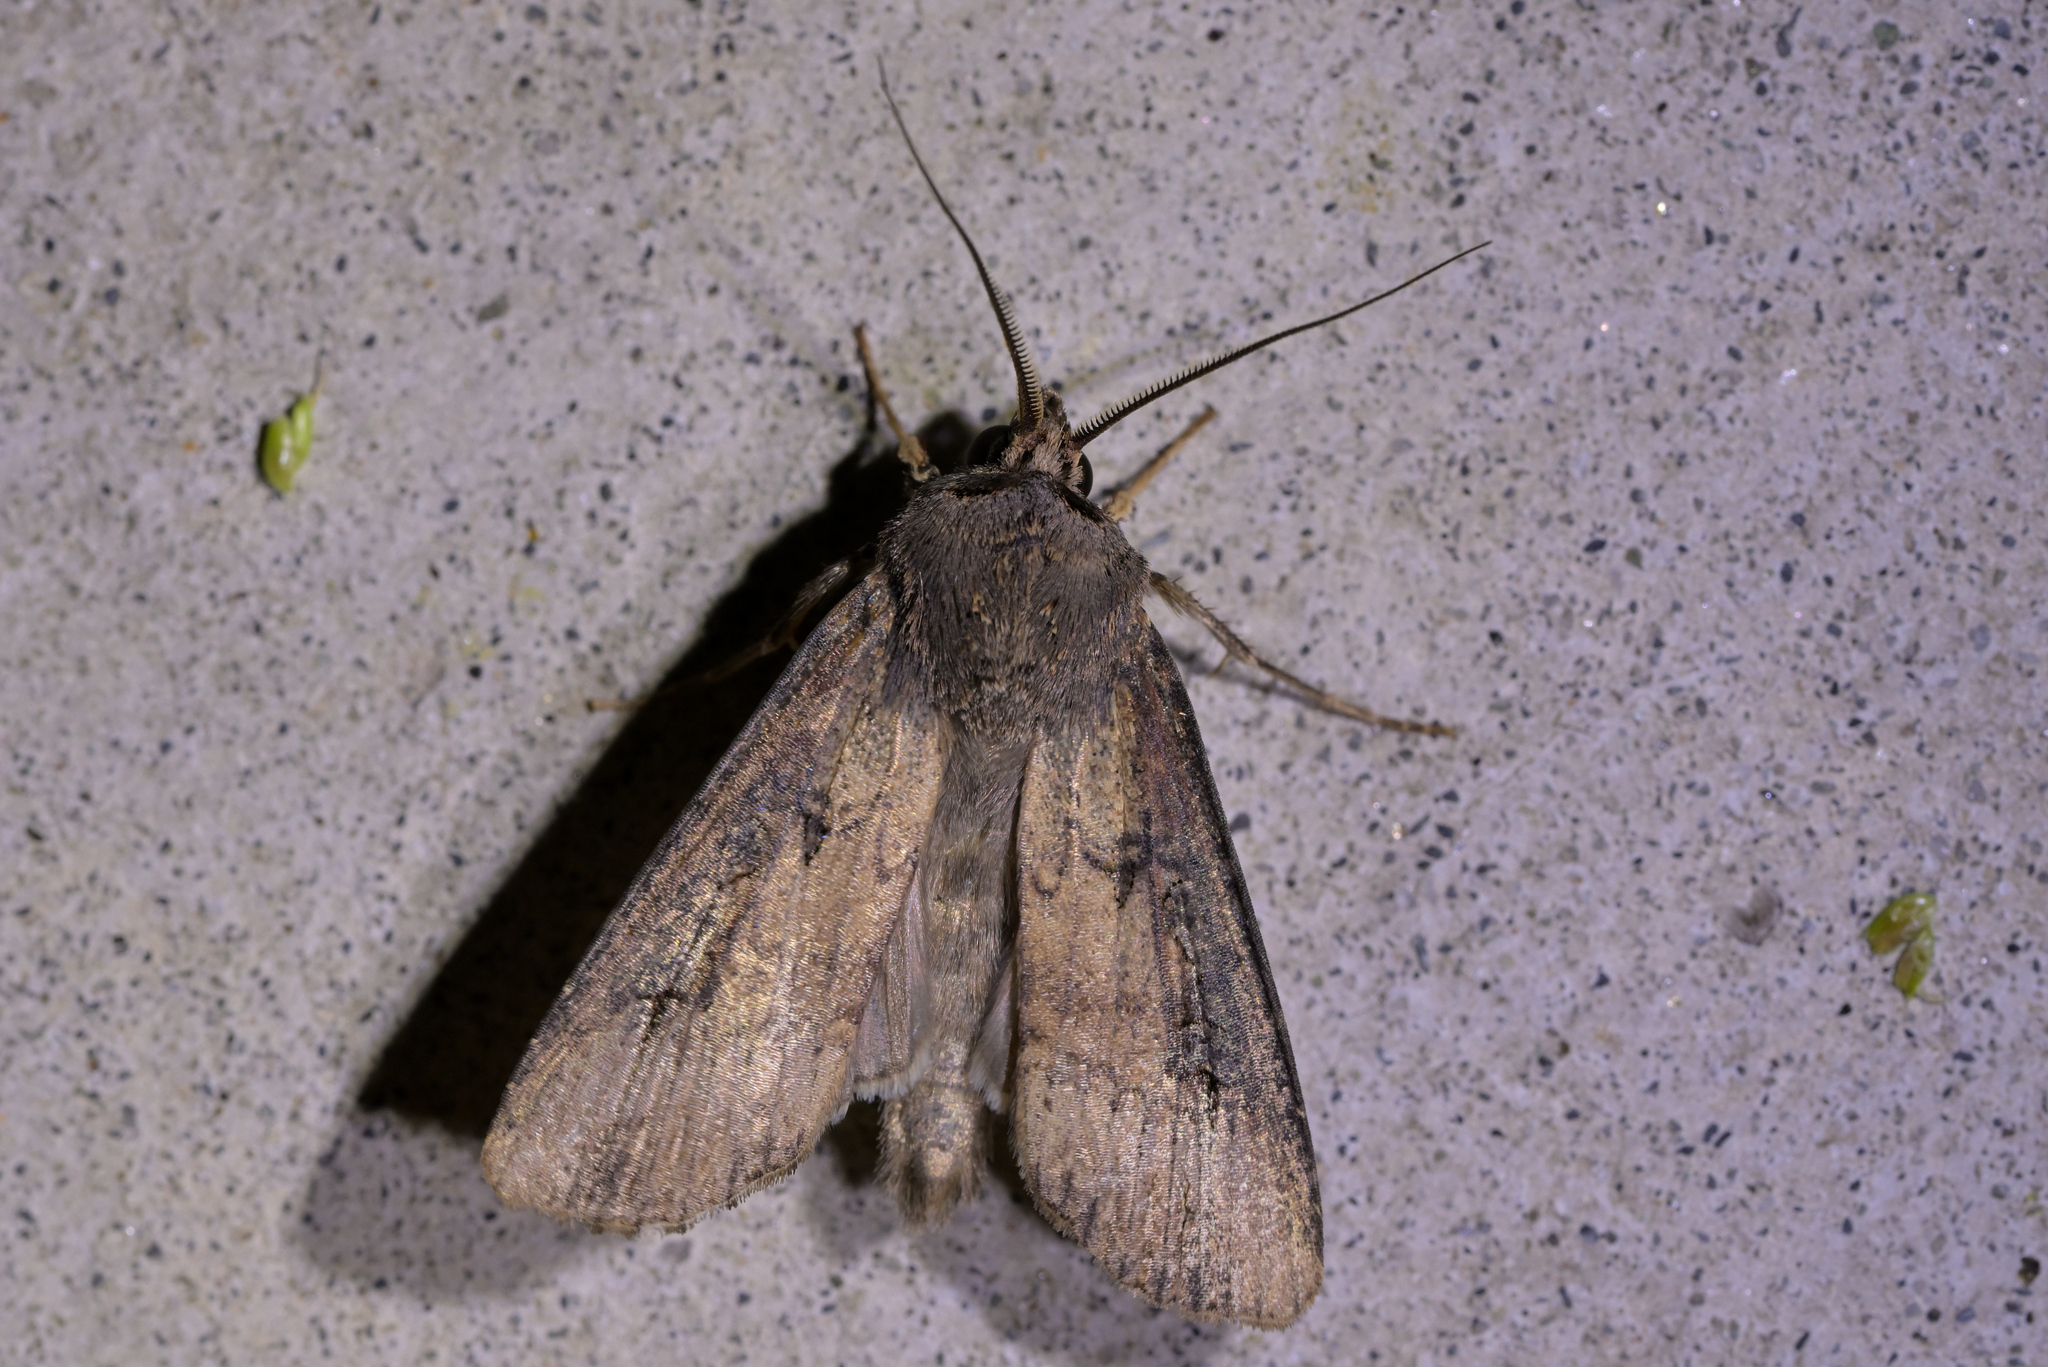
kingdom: Animalia
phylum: Arthropoda
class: Insecta
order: Lepidoptera
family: Noctuidae
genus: Agrotis
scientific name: Agrotis ipsilon
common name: Dark sword-grass
